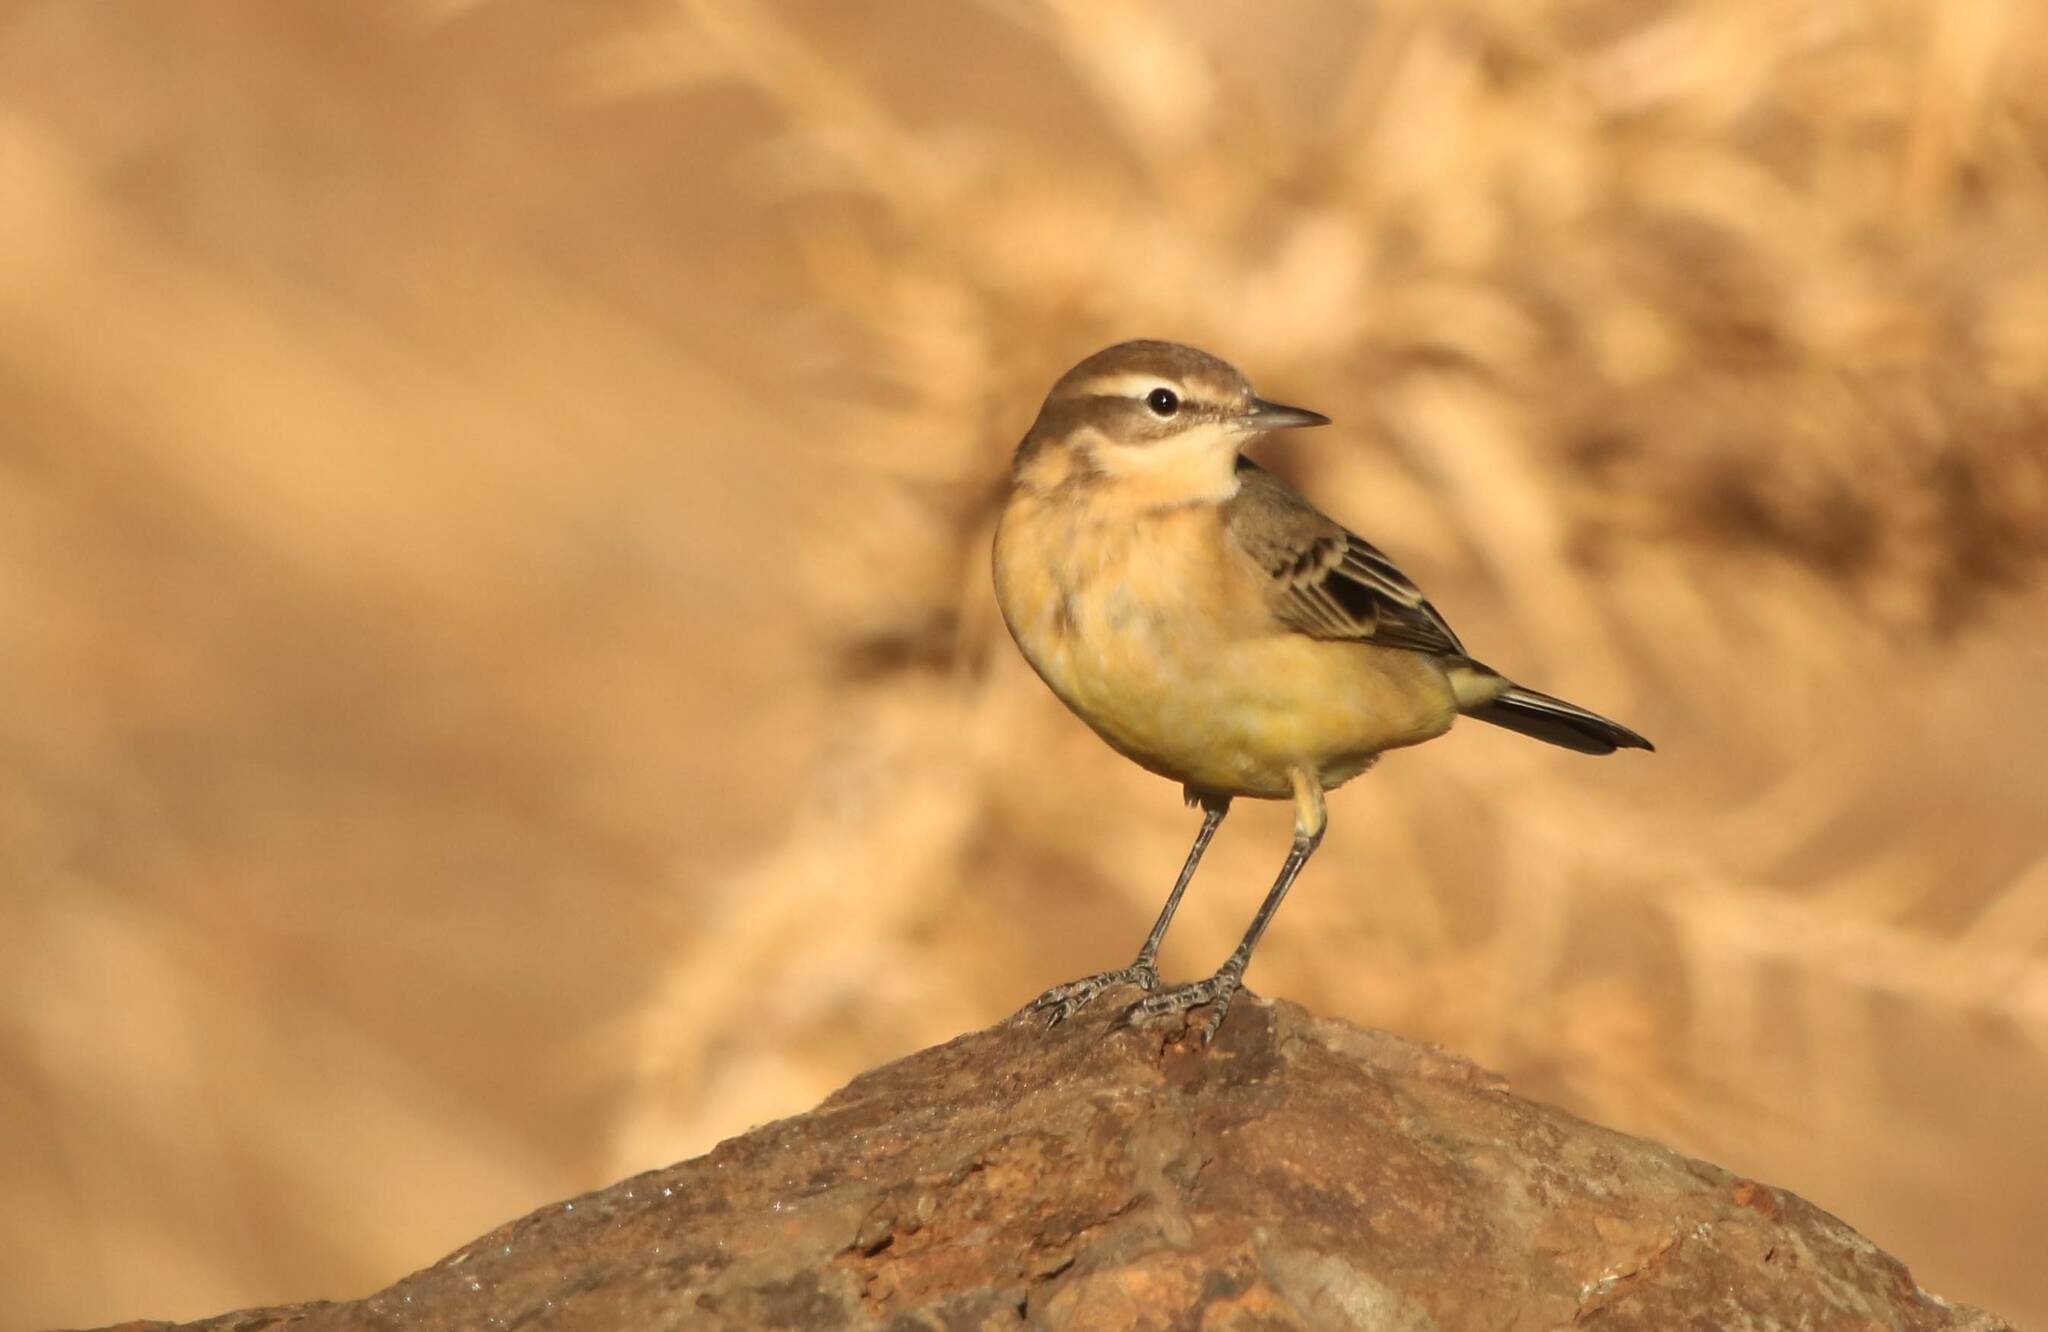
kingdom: Animalia
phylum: Chordata
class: Aves
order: Passeriformes
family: Motacillidae
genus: Motacilla
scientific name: Motacilla flava
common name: Western yellow wagtail
